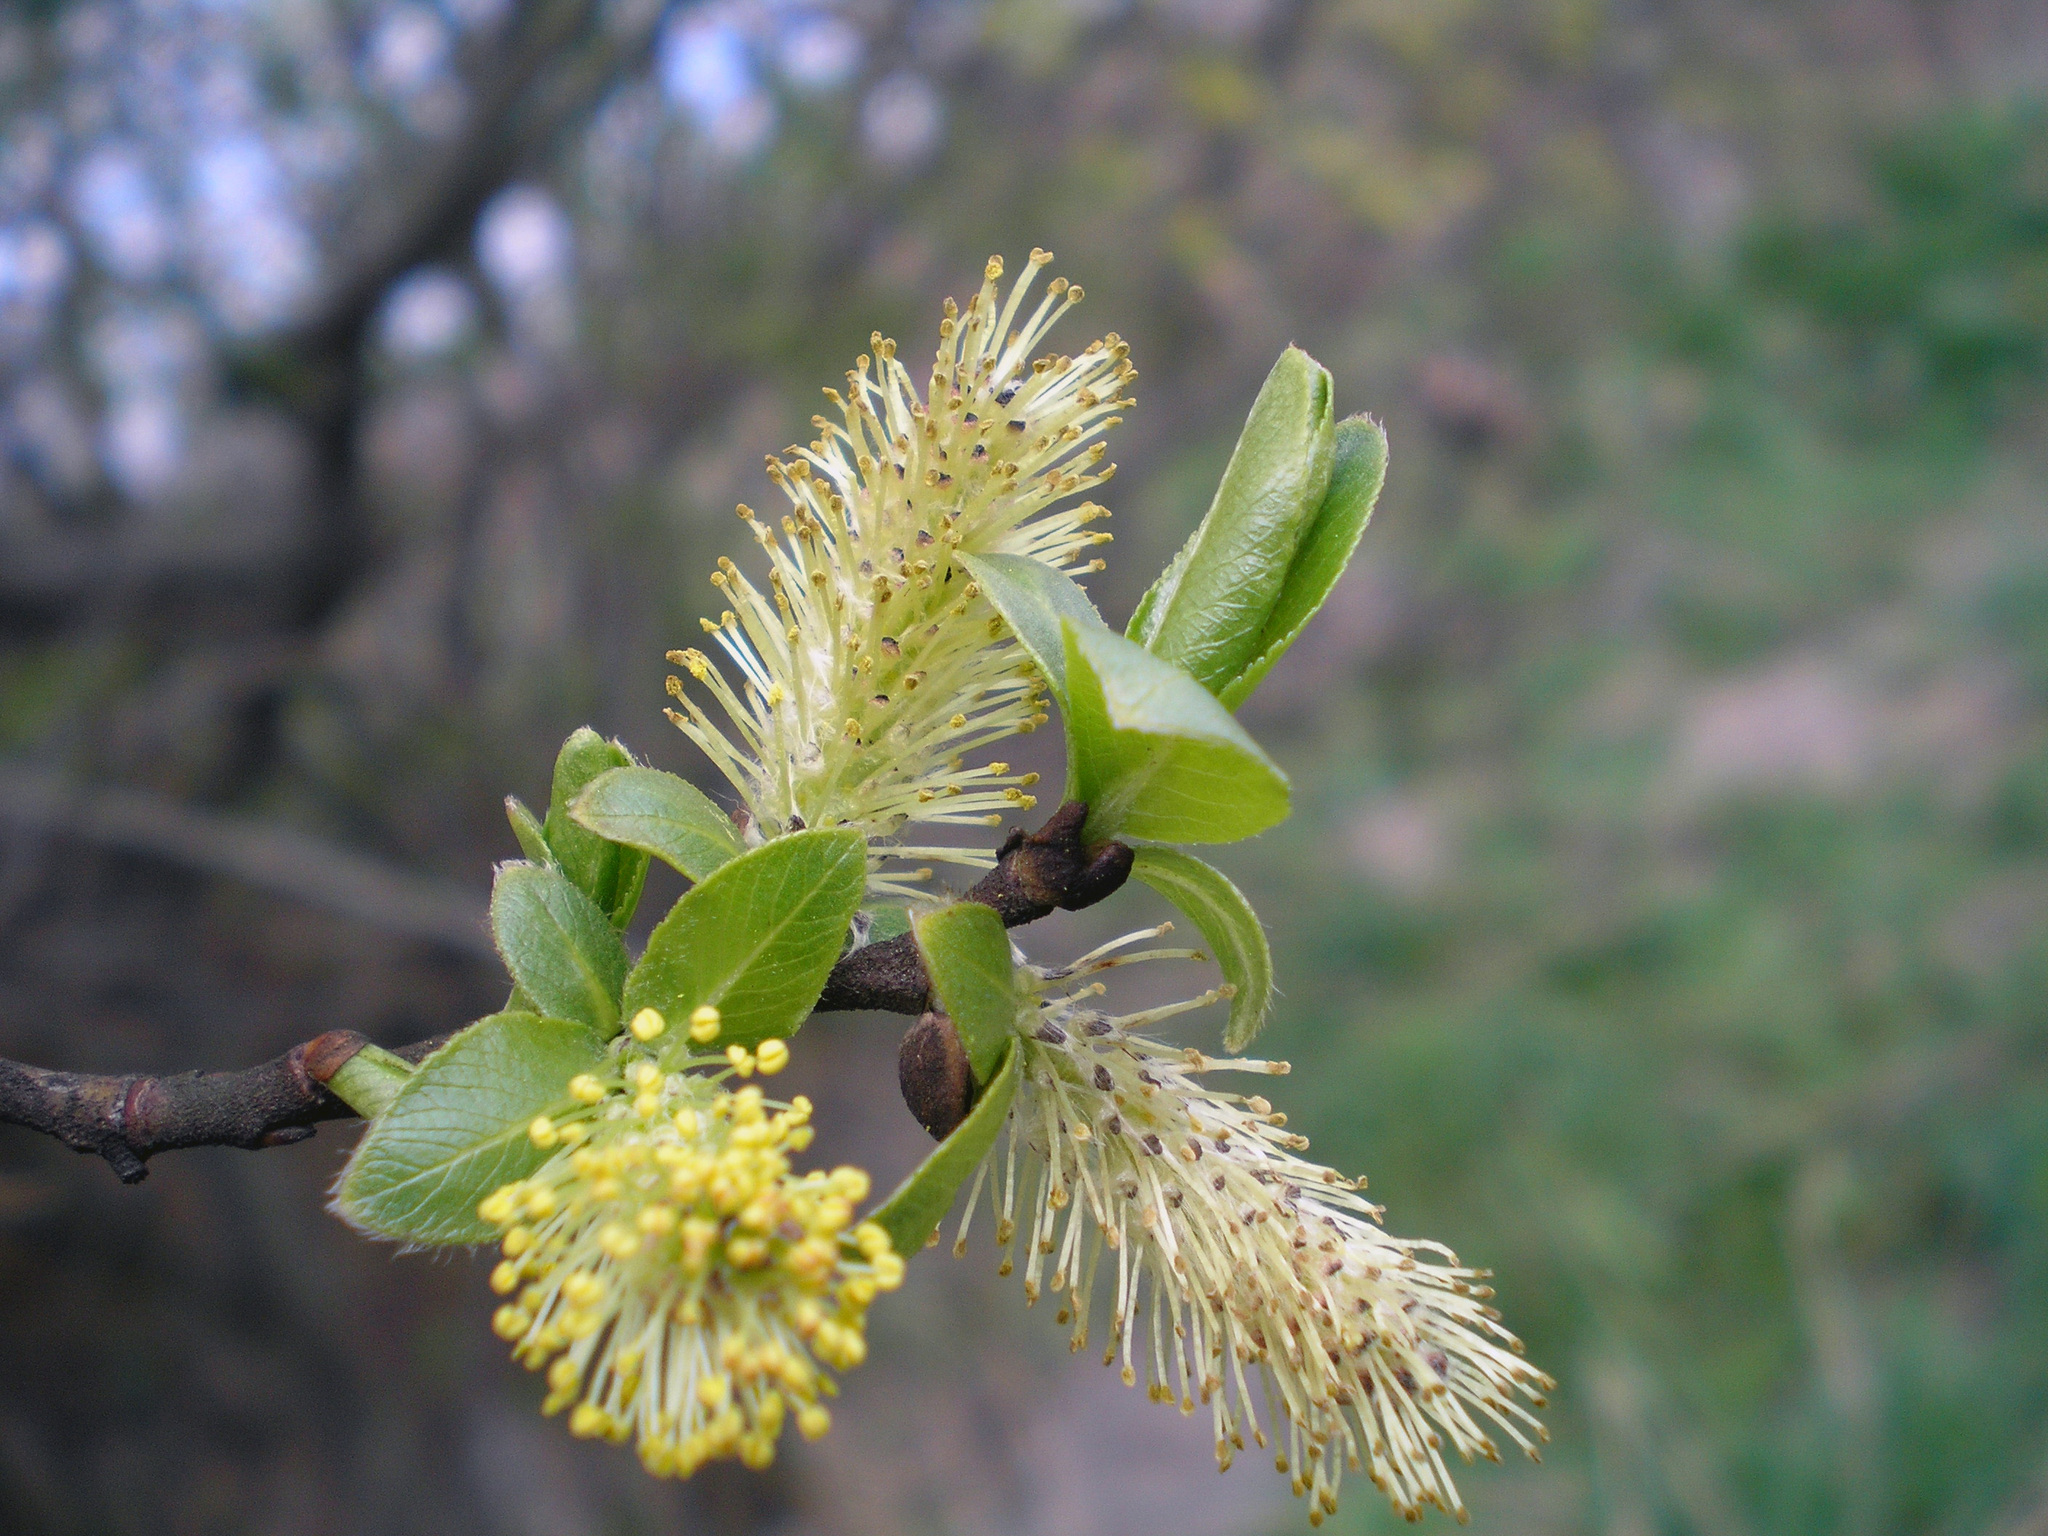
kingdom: Plantae
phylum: Tracheophyta
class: Magnoliopsida
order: Malpighiales
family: Salicaceae
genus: Salix
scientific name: Salix caprea
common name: Goat willow
